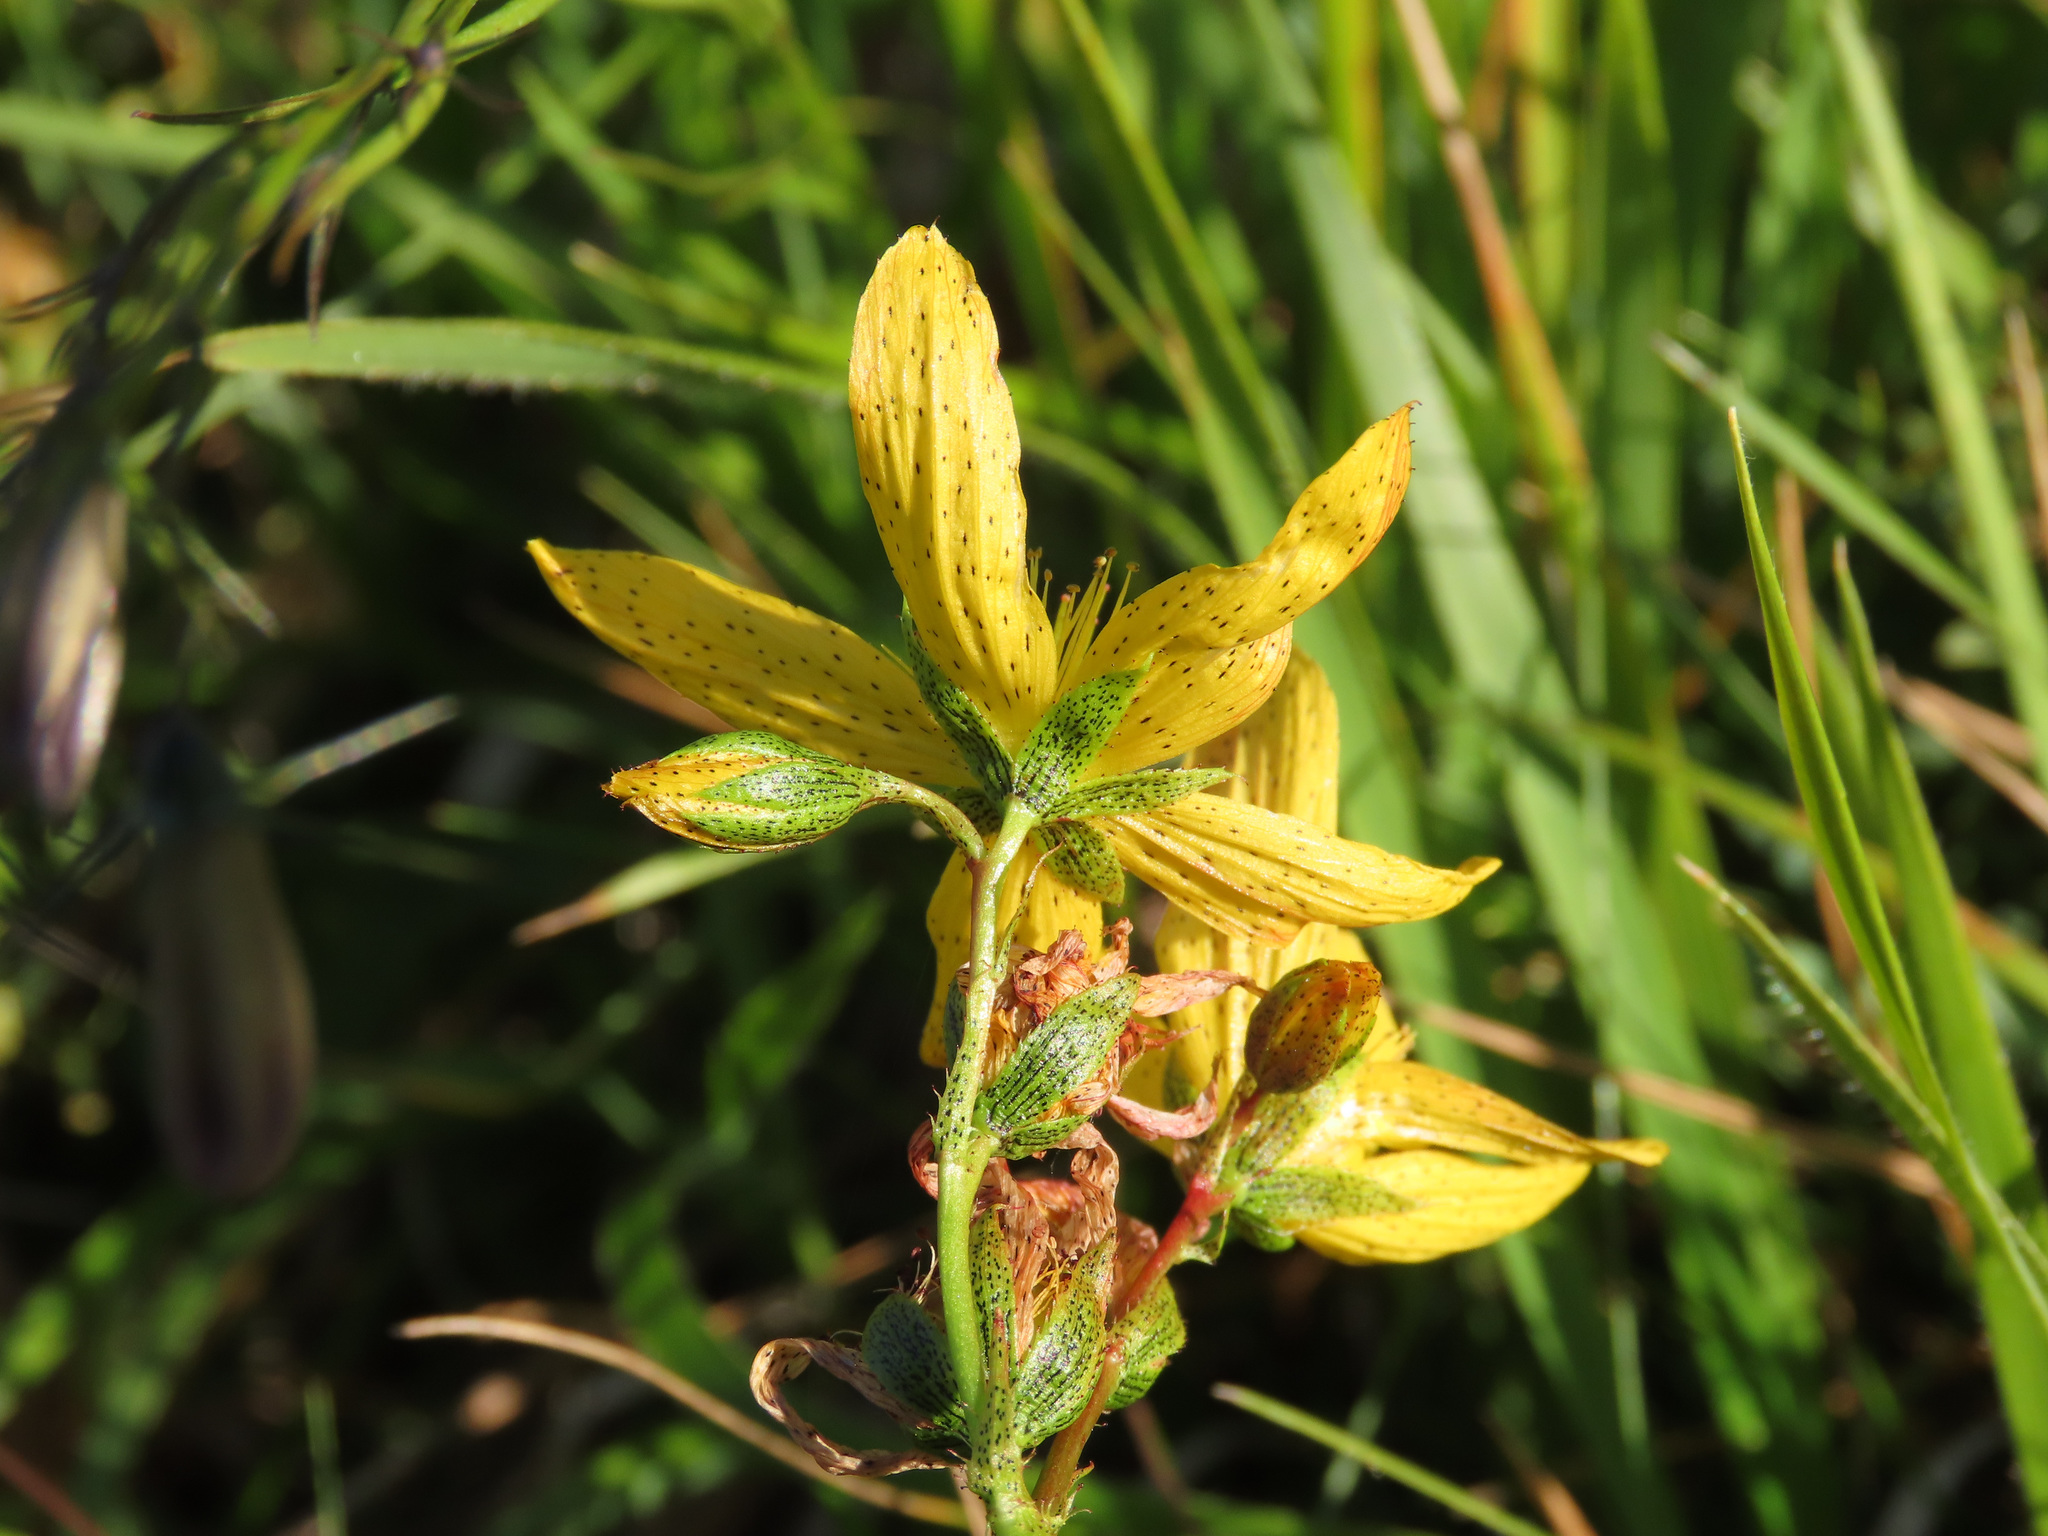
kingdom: Plantae
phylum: Tracheophyta
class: Magnoliopsida
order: Malpighiales
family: Hypericaceae
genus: Hypericum
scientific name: Hypericum richeri
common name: Alpine st john's-wort
